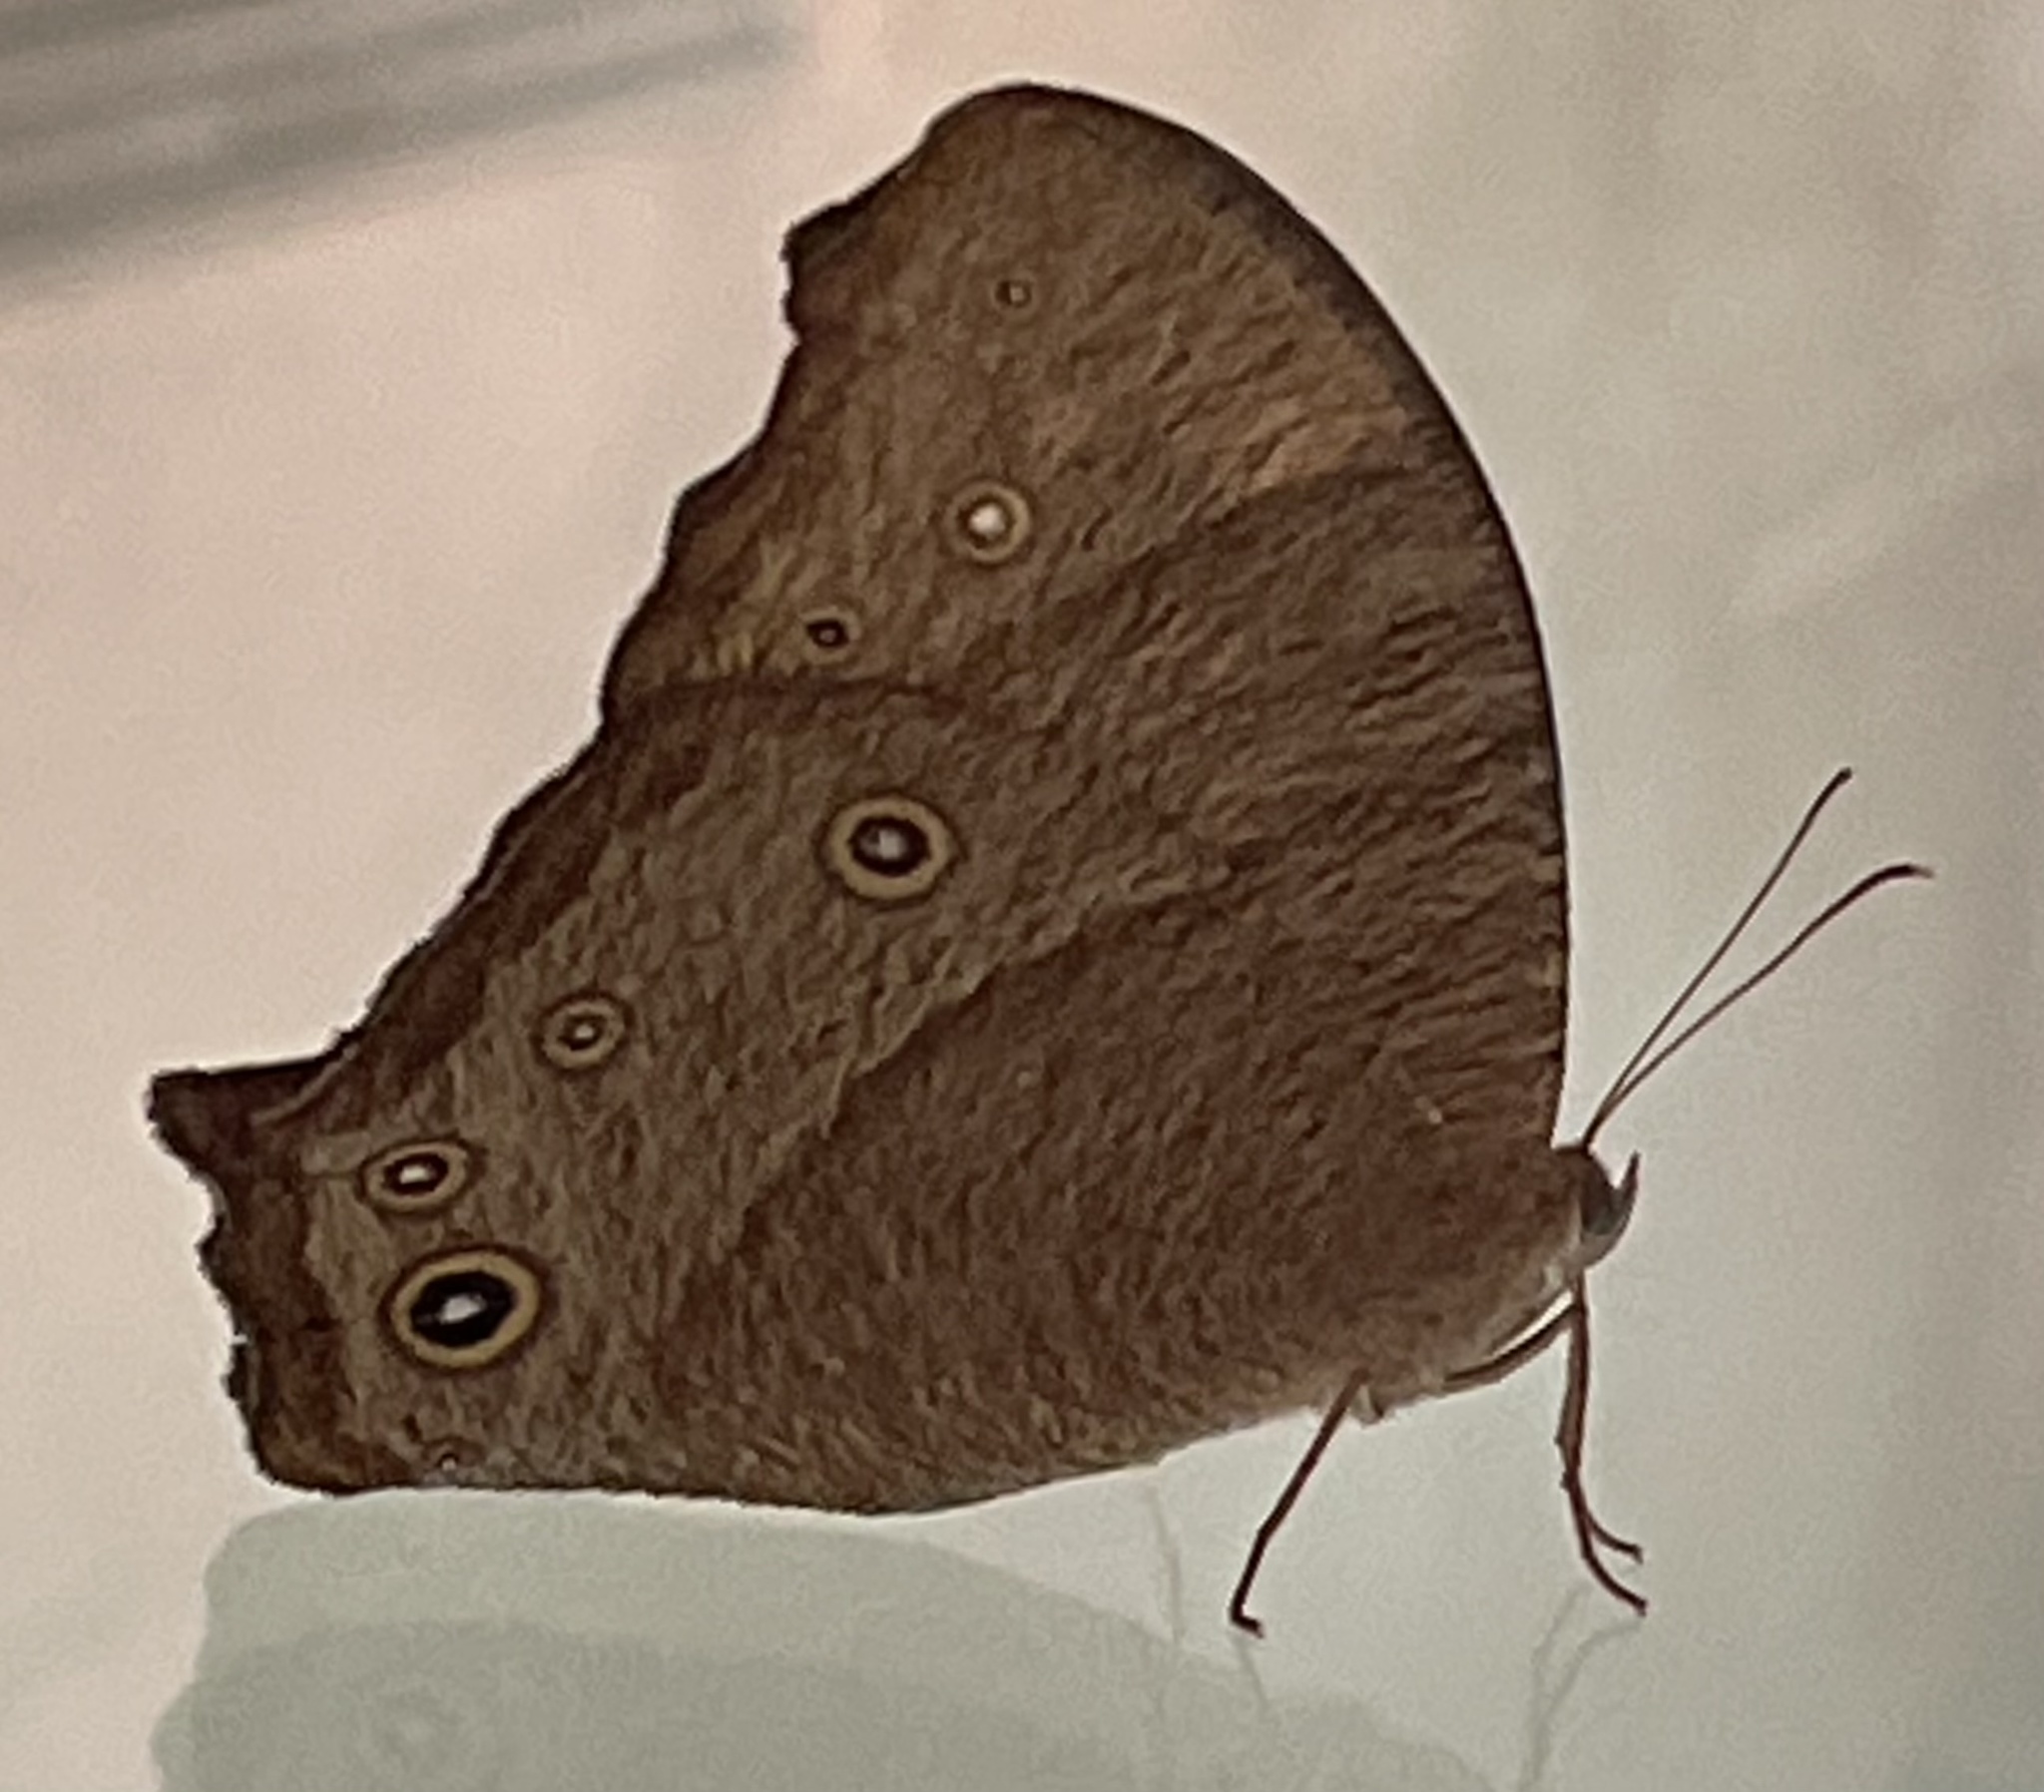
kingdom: Animalia
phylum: Arthropoda
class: Insecta
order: Lepidoptera
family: Nymphalidae
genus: Melanitis
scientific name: Melanitis leda
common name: Twilight brown
